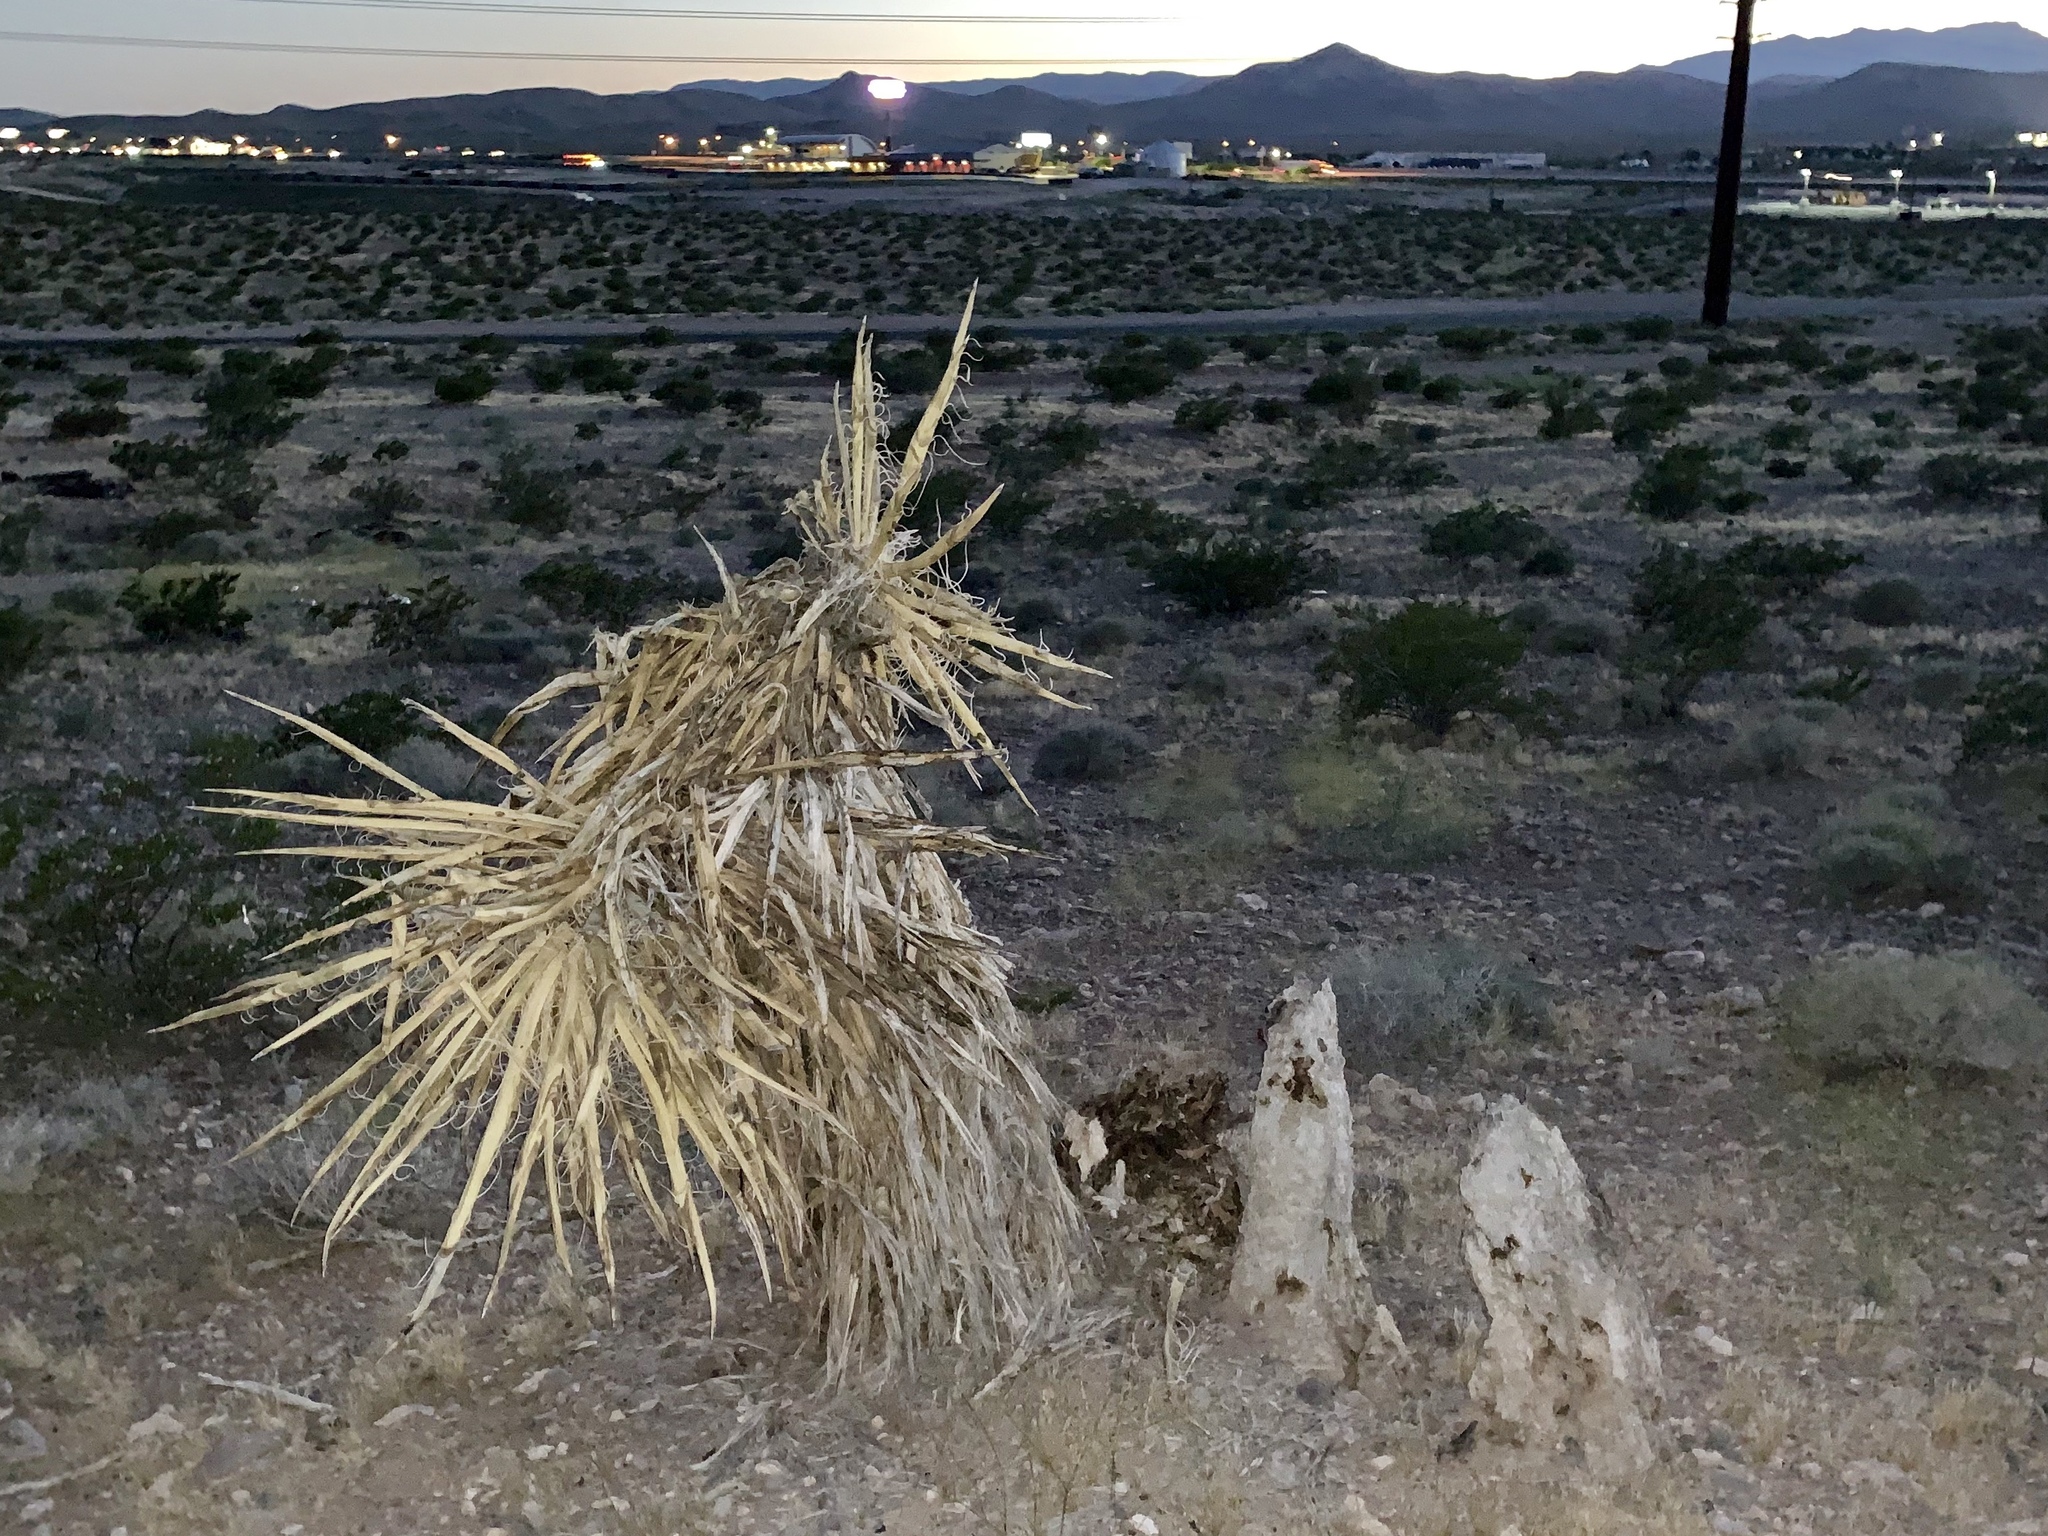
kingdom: Plantae
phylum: Tracheophyta
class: Liliopsida
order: Asparagales
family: Asparagaceae
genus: Yucca
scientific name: Yucca schidigera
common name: Mojave yucca
